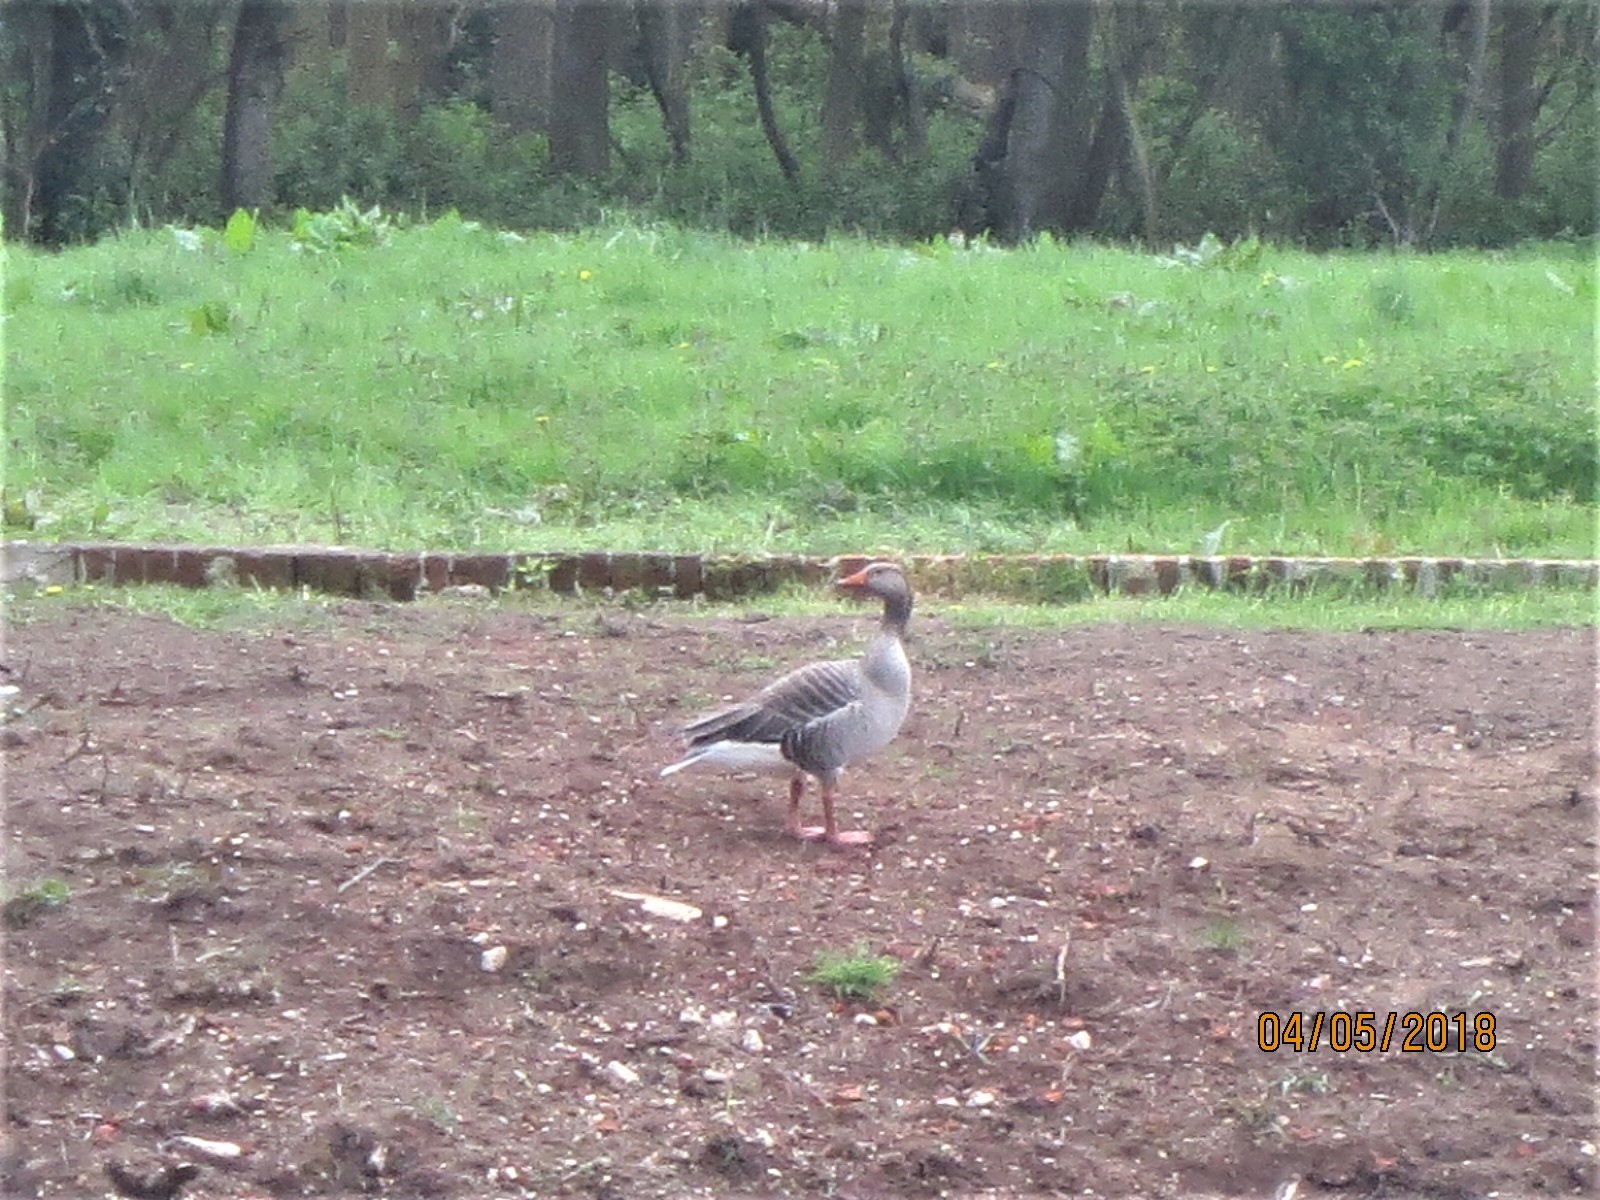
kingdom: Animalia
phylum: Chordata
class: Aves
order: Anseriformes
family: Anatidae
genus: Anser
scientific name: Anser anser
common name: Greylag goose
